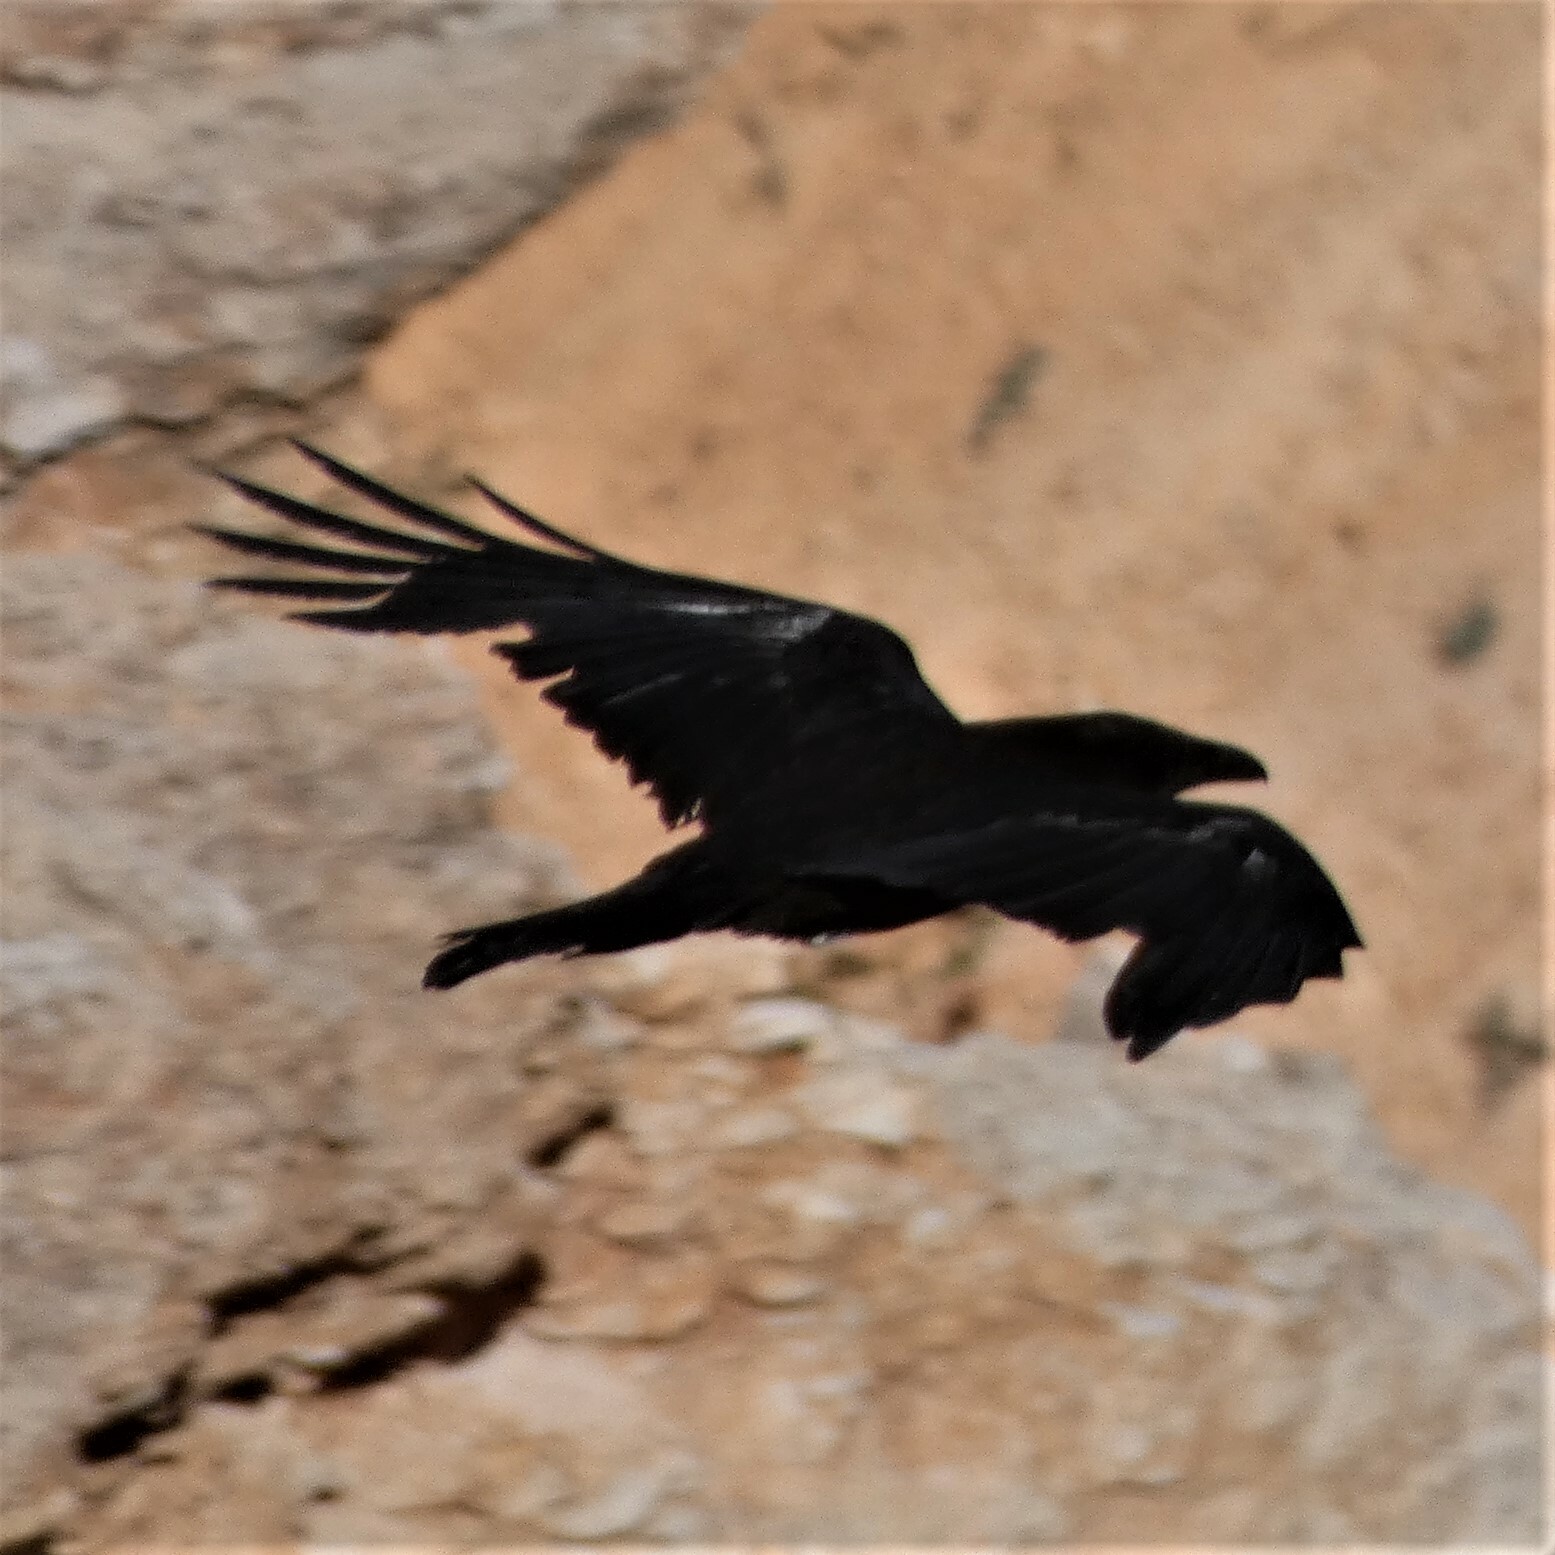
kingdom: Animalia
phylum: Chordata
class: Aves
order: Passeriformes
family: Corvidae
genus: Corvus
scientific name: Corvus corax
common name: Common raven
